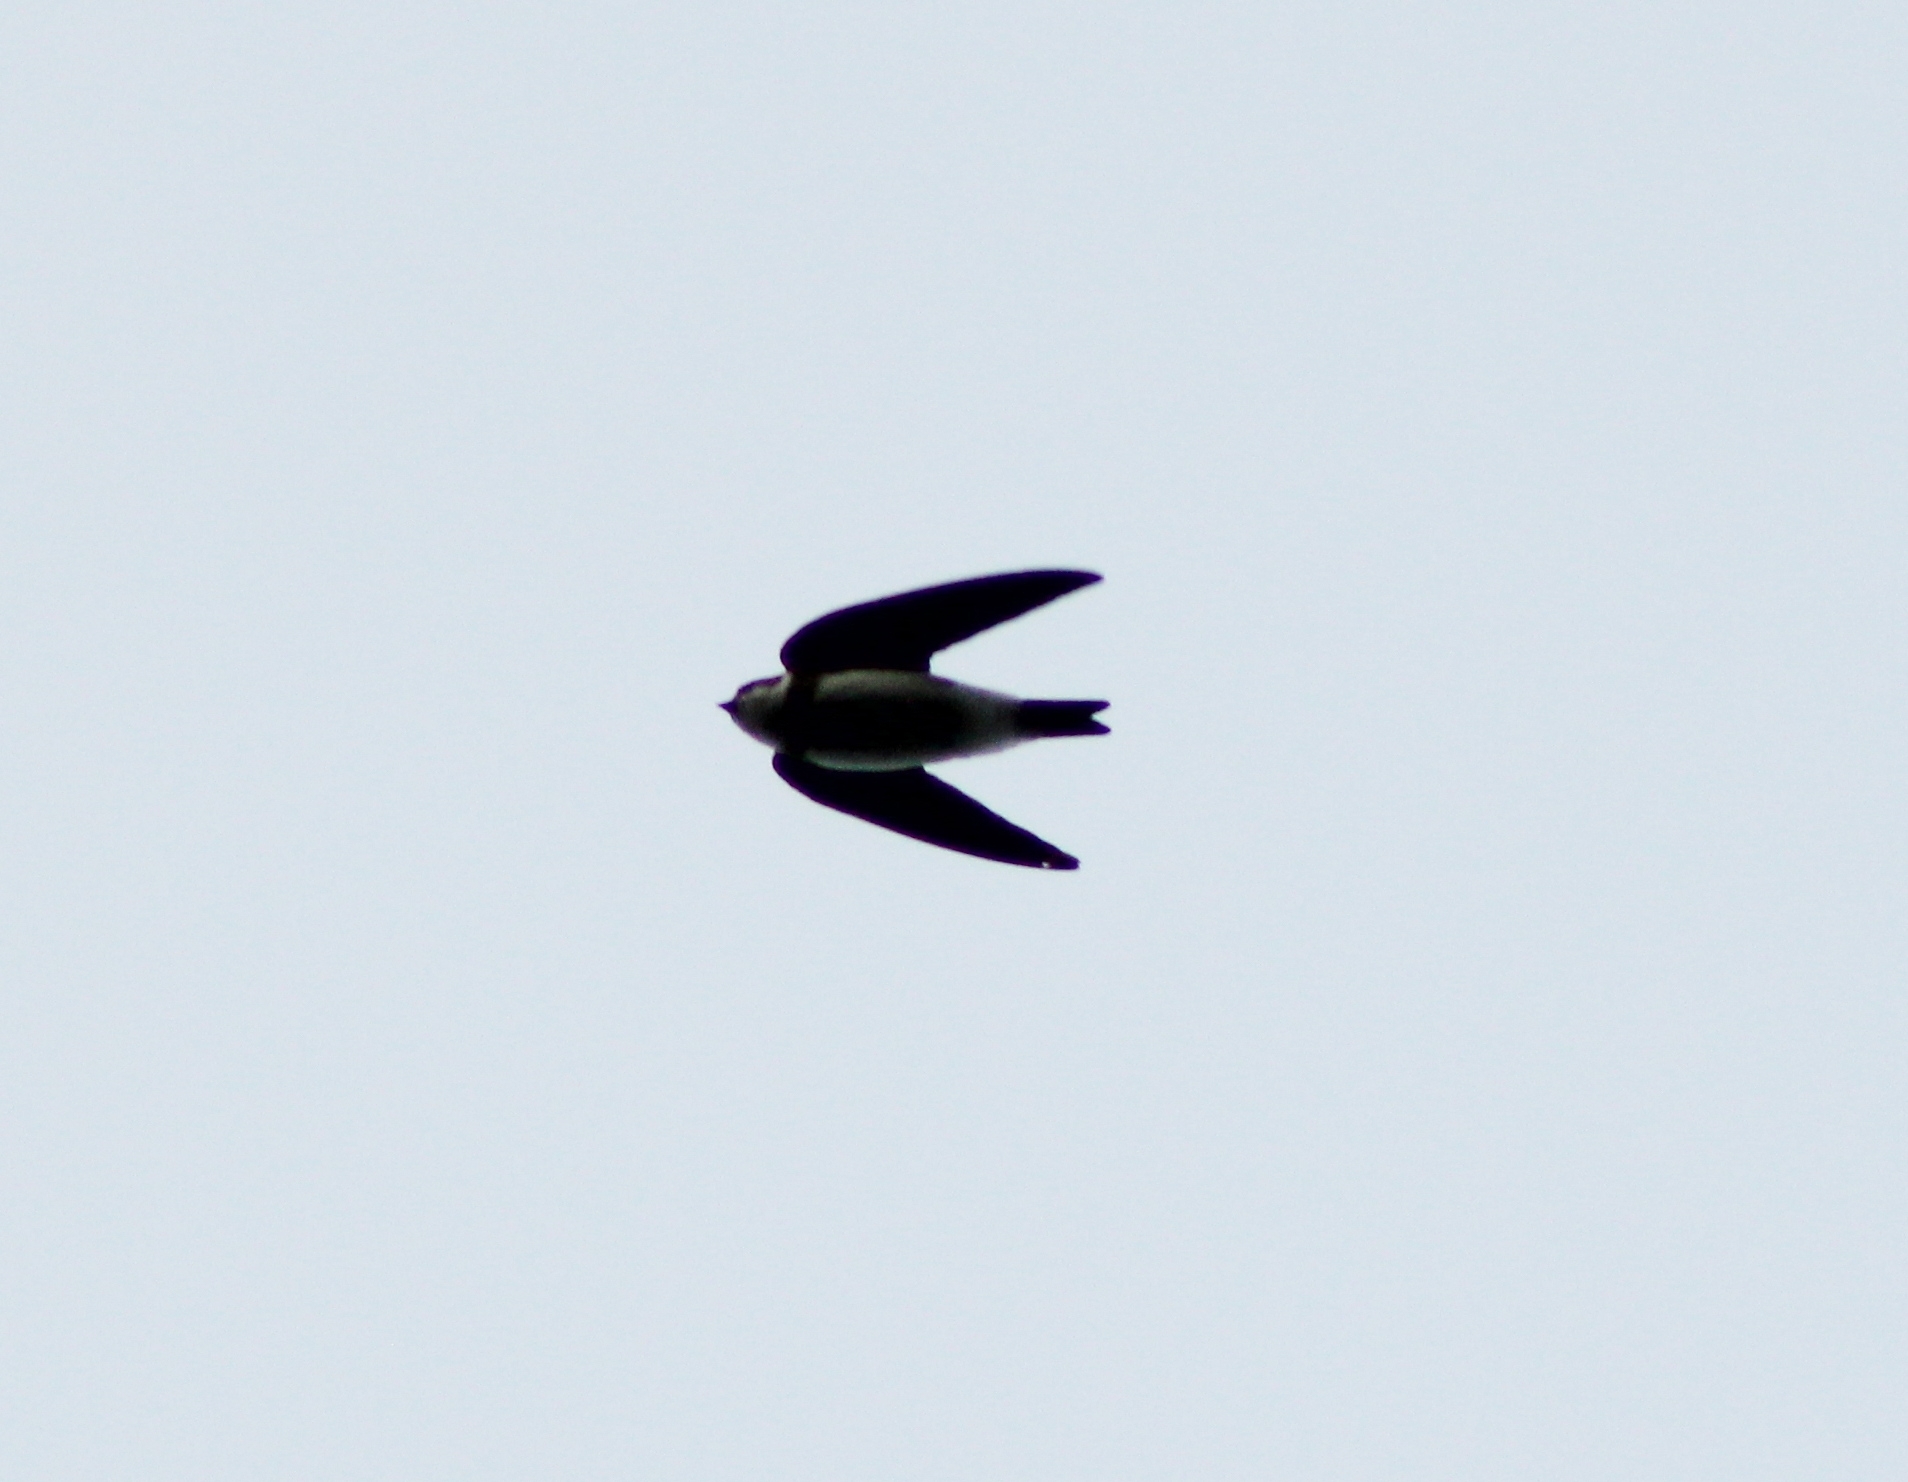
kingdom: Animalia
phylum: Chordata
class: Aves
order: Passeriformes
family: Hirundinidae
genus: Riparia
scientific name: Riparia riparia
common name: Sand martin
